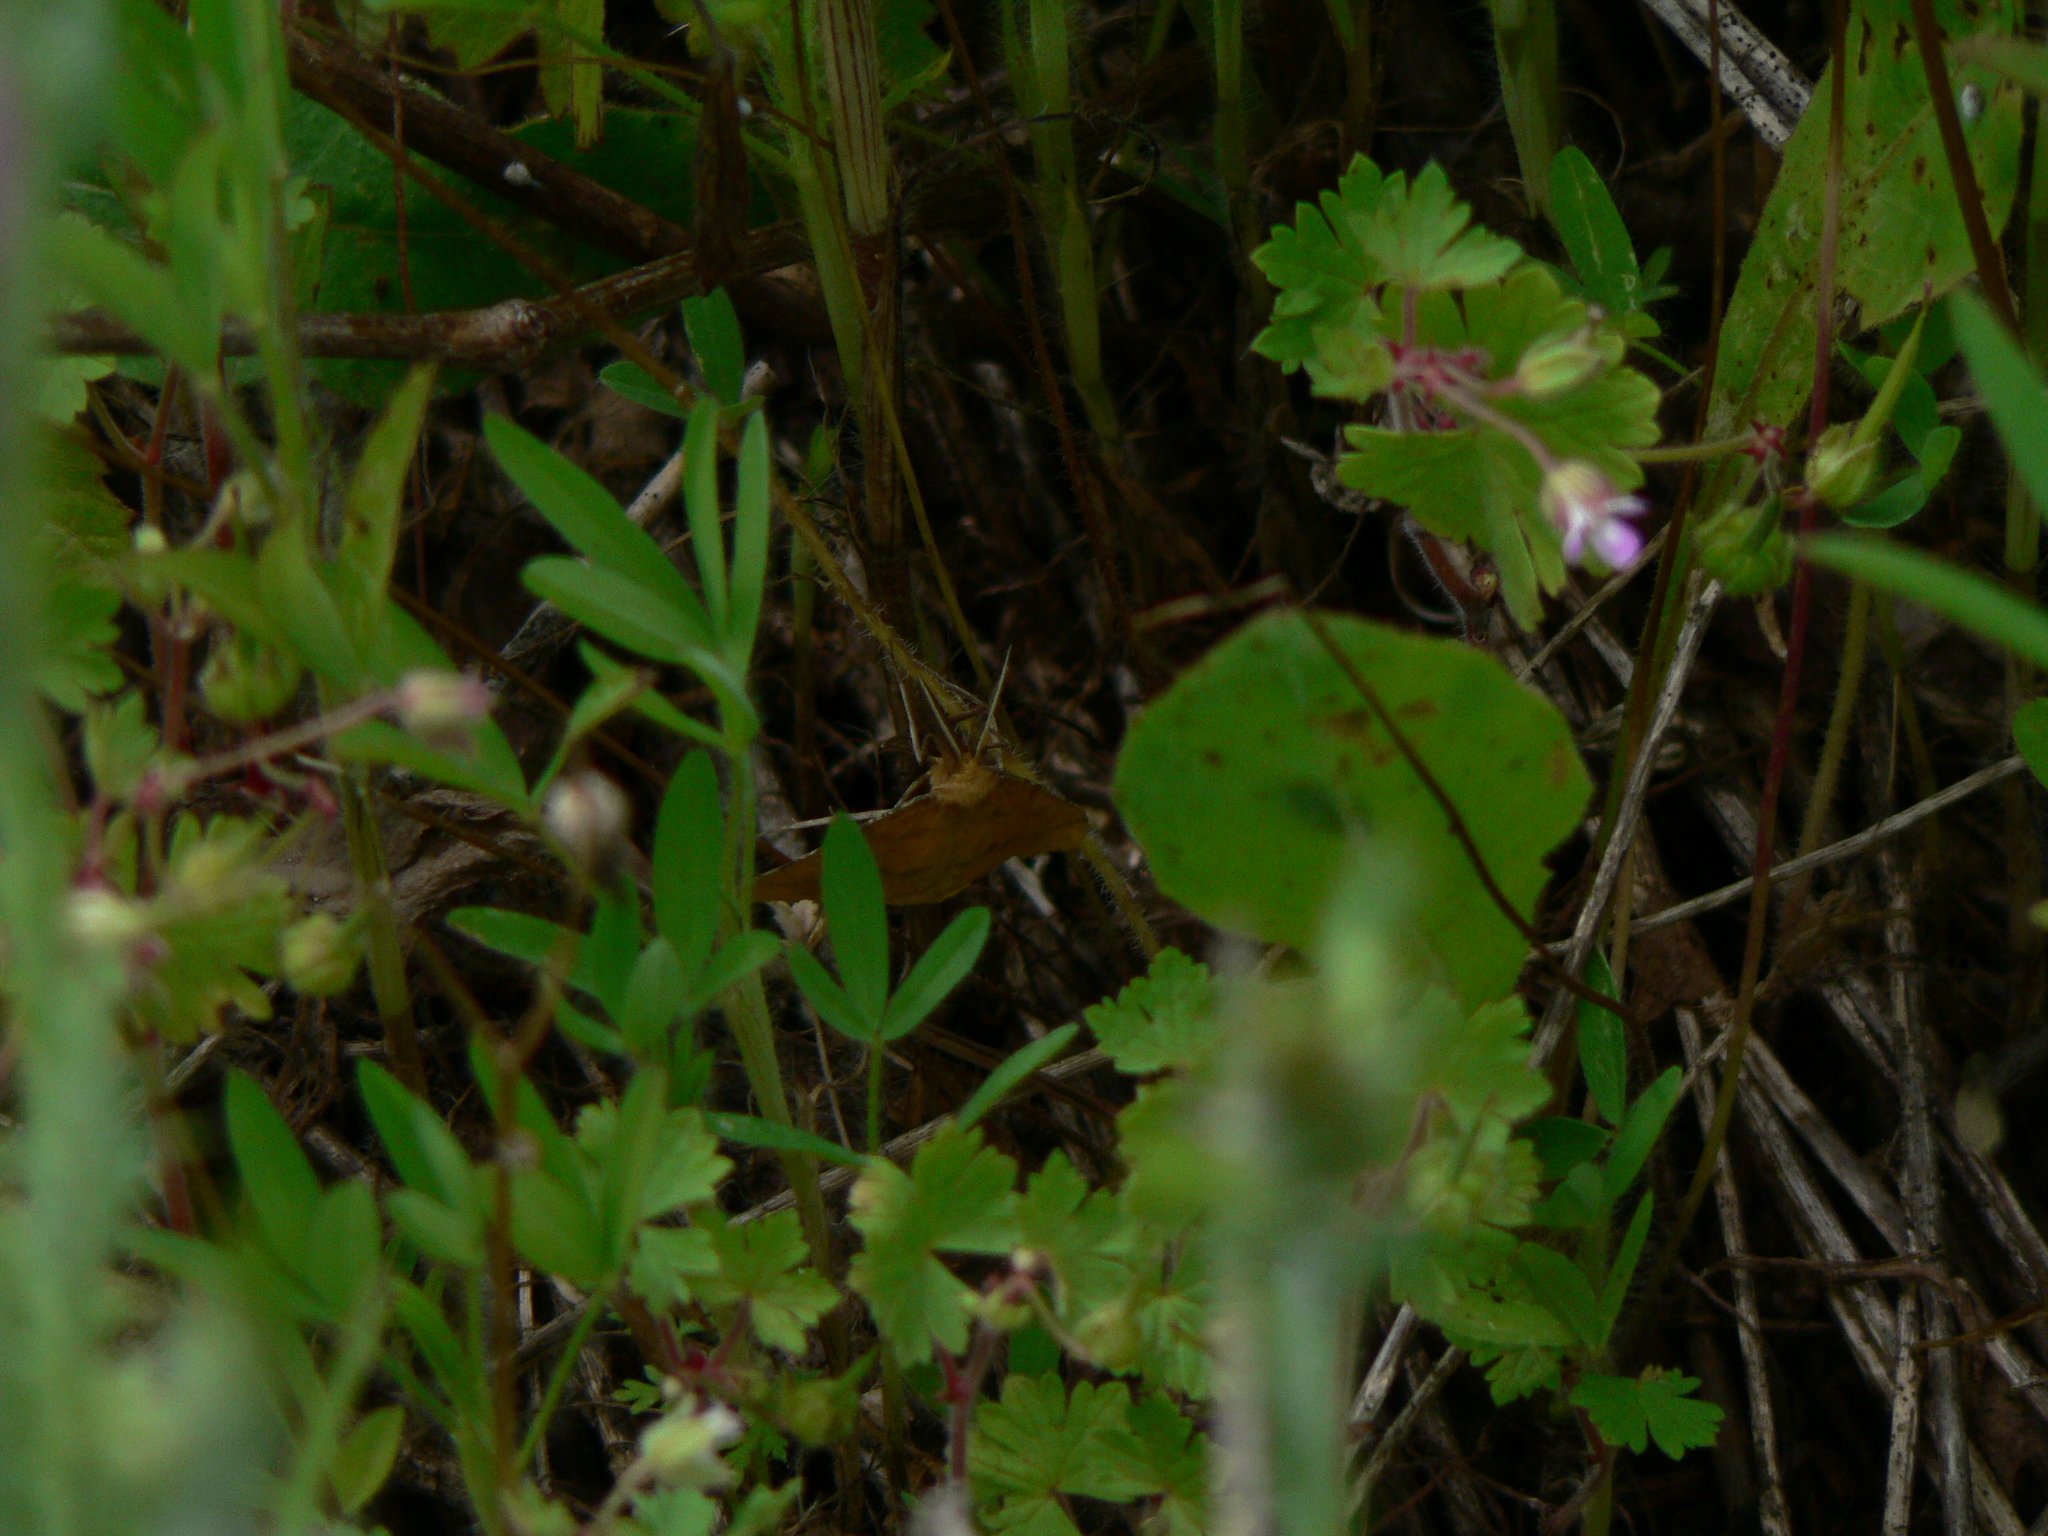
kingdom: Animalia
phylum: Arthropoda
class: Insecta
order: Lepidoptera
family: Geometridae
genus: Aspitates
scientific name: Aspitates ochrearia
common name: Yellow belle
